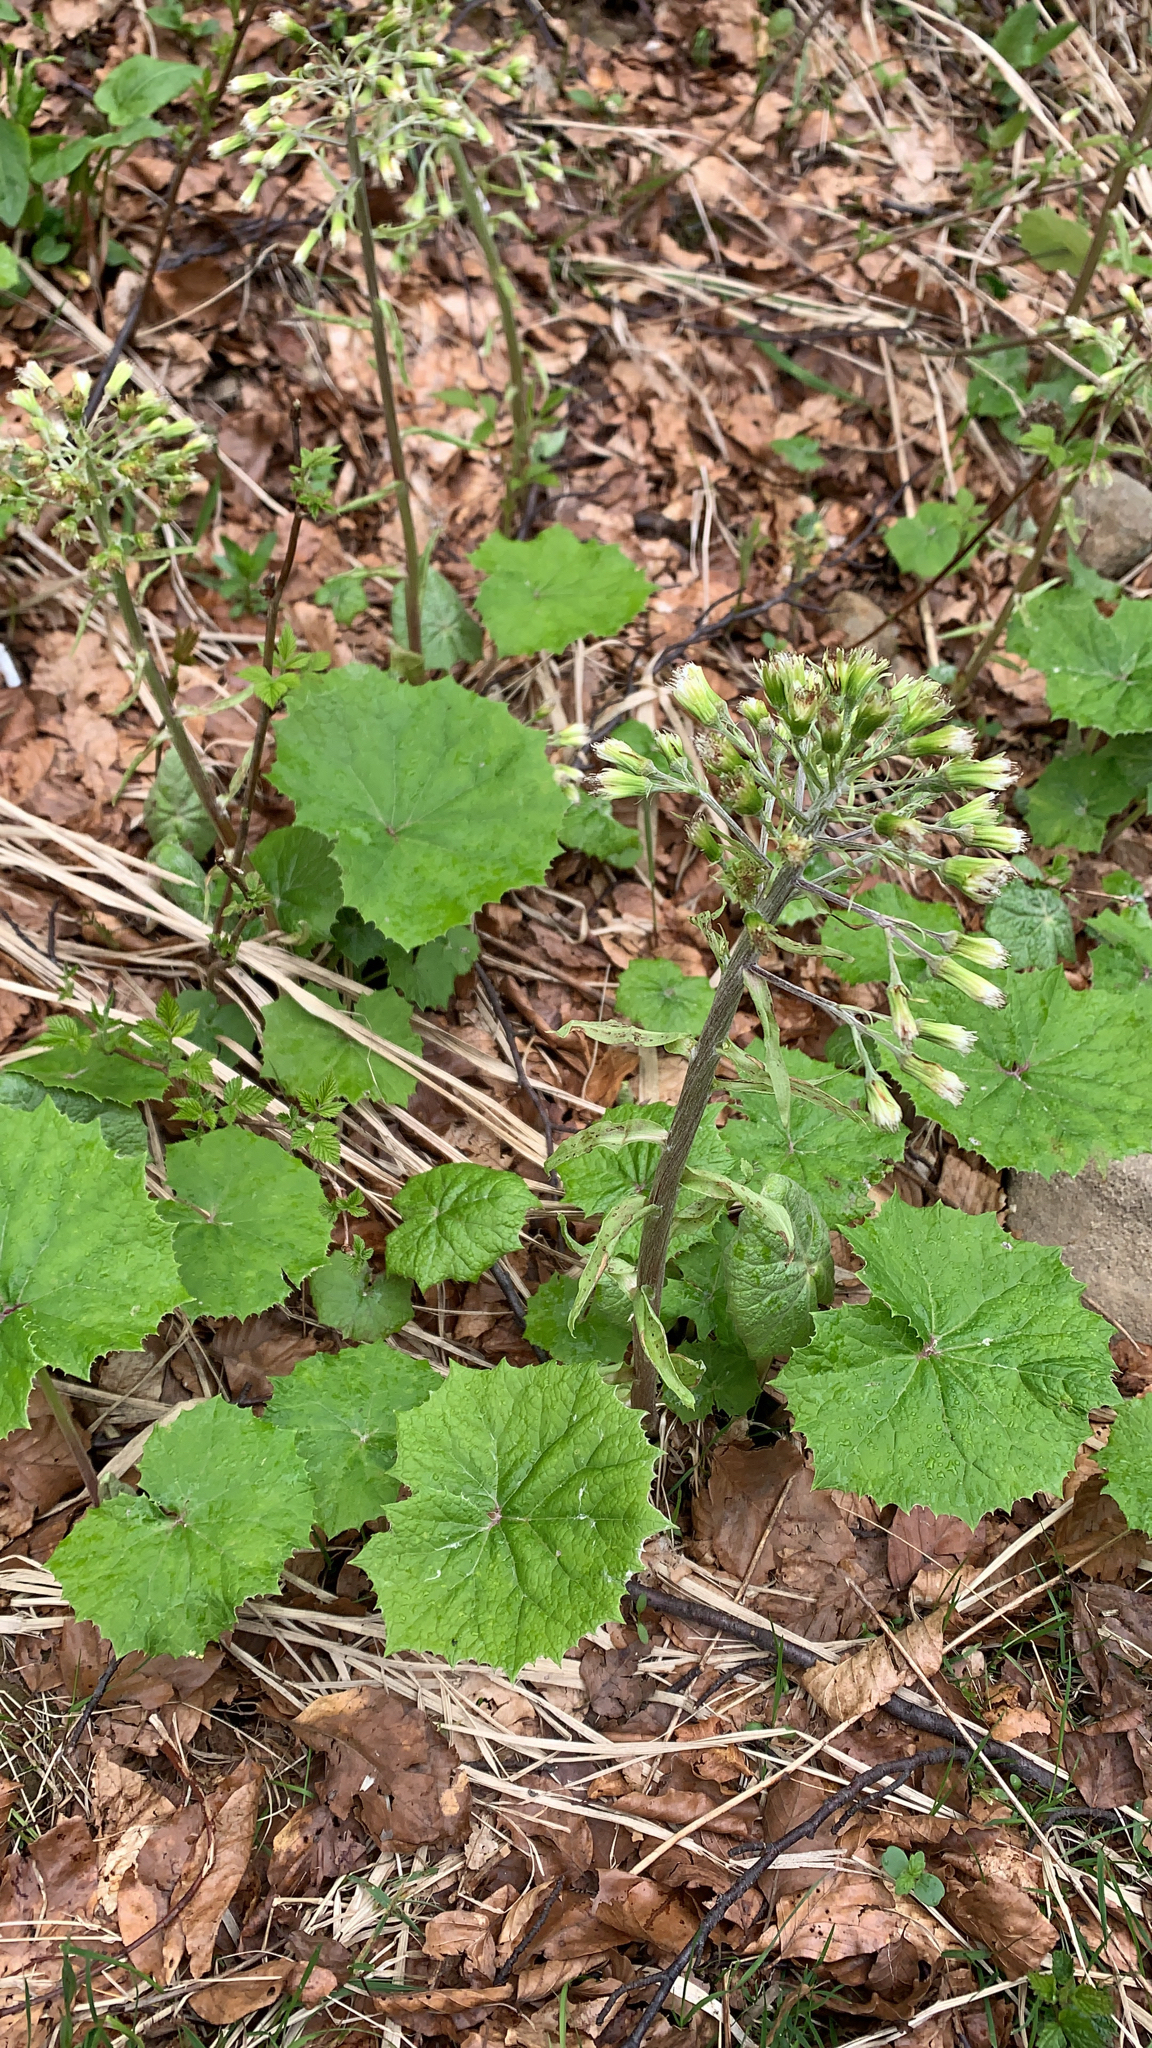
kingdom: Plantae
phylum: Tracheophyta
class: Magnoliopsida
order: Asterales
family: Asteraceae
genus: Petasites
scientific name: Petasites albus
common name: White butterbur
